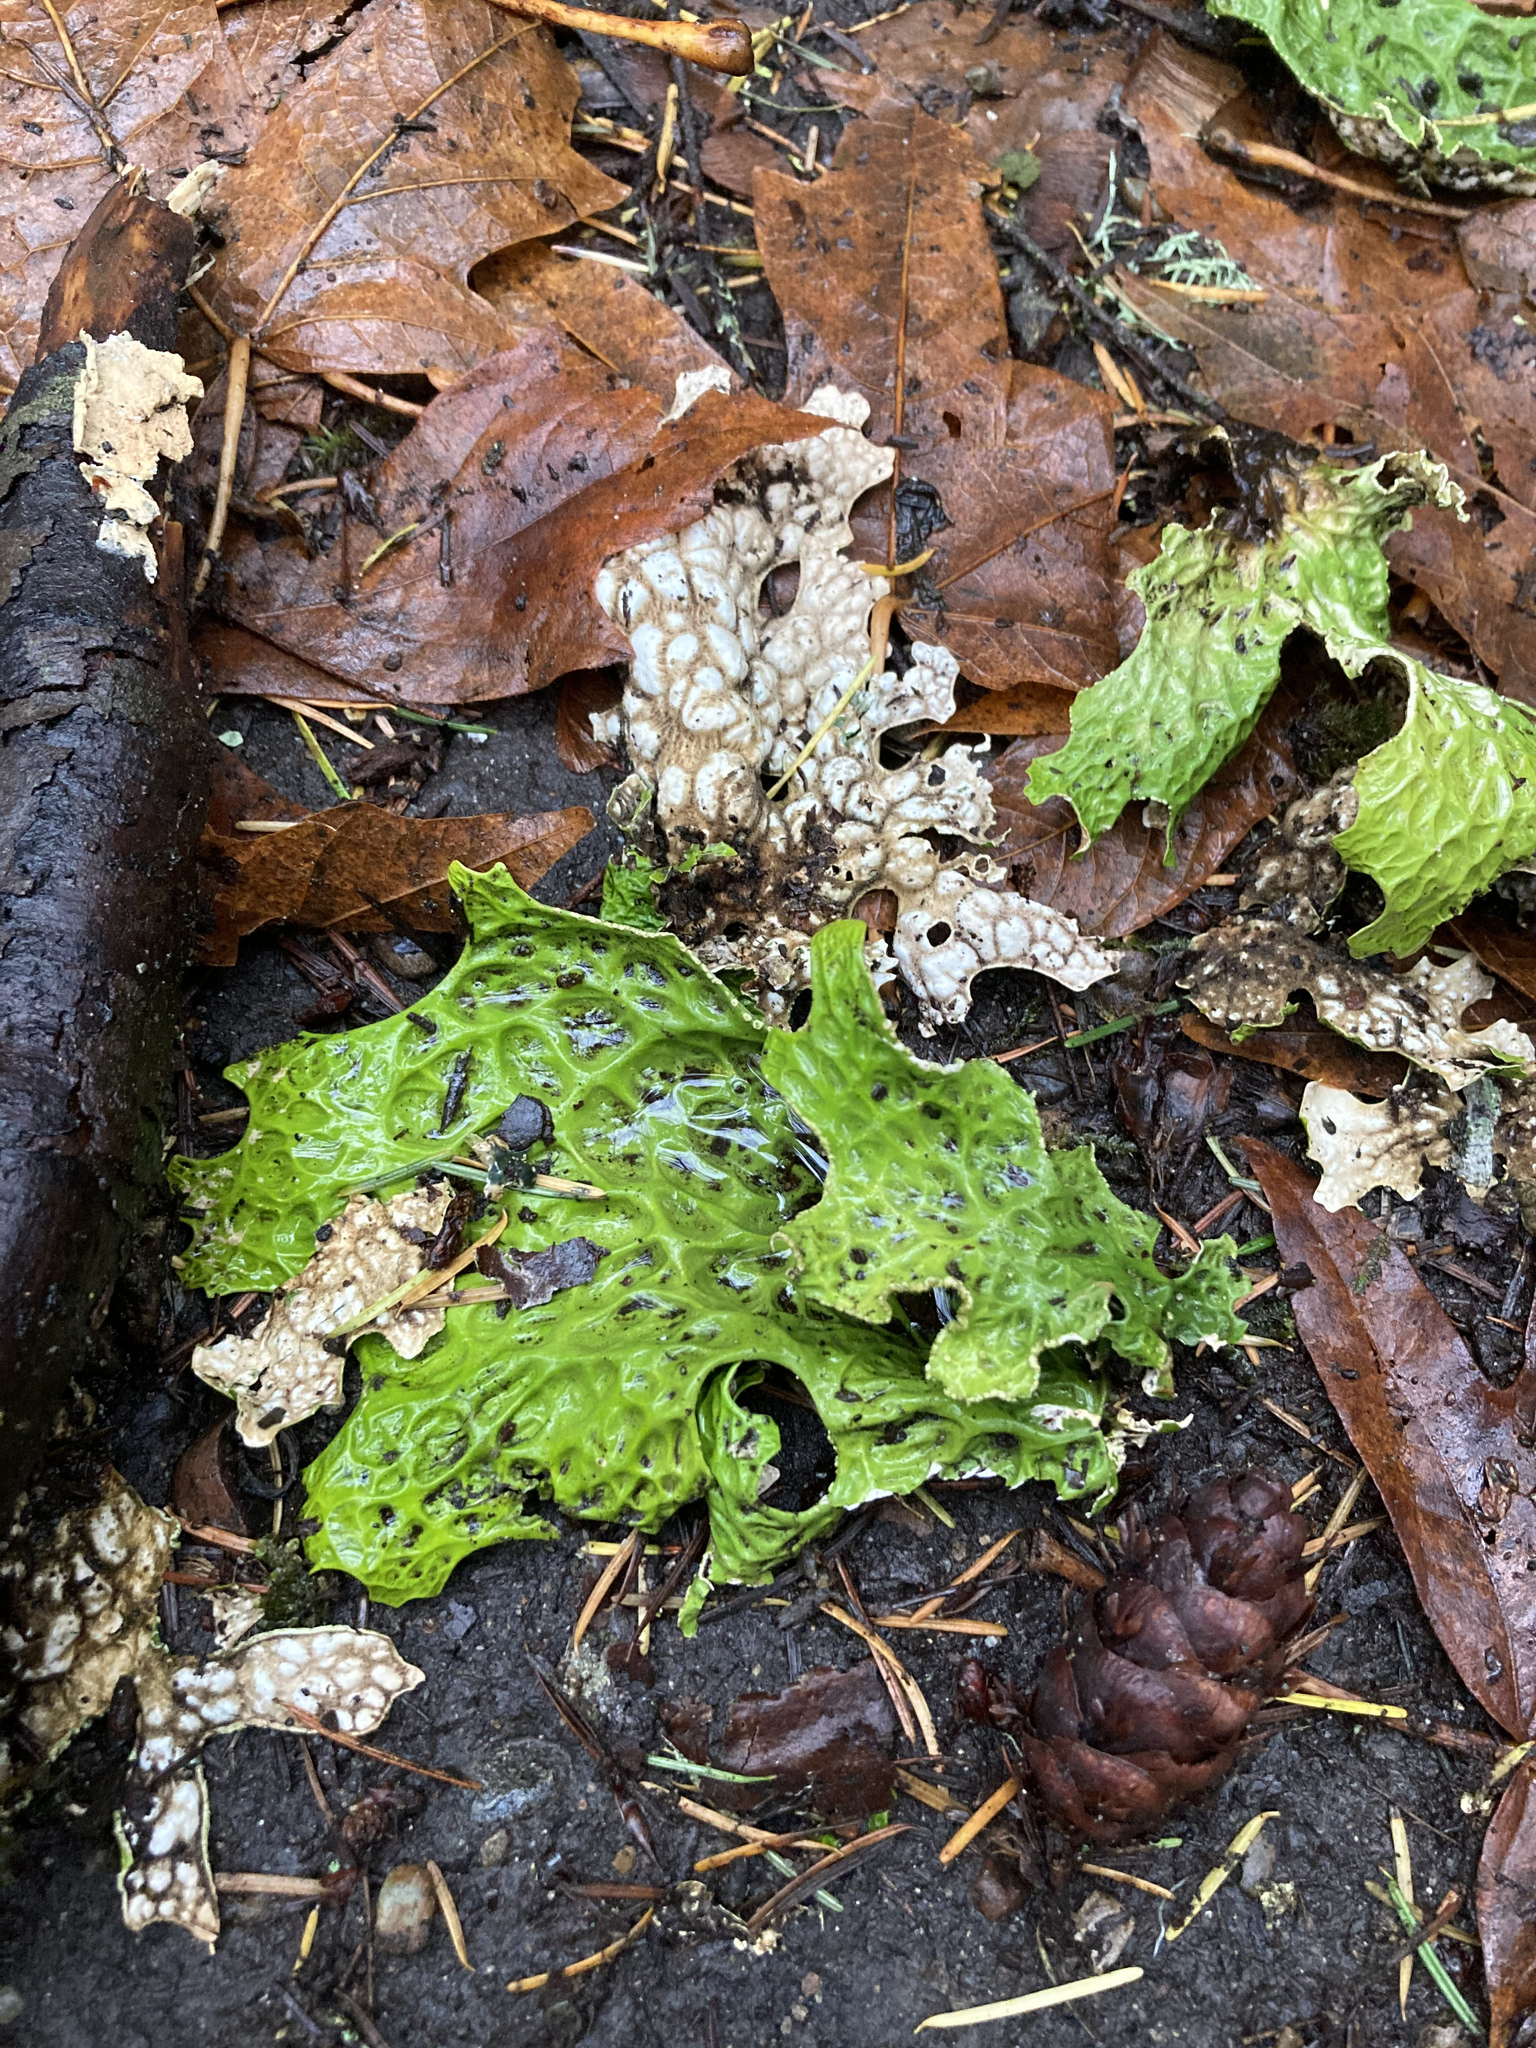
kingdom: Fungi
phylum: Ascomycota
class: Lecanoromycetes
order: Peltigerales
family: Lobariaceae
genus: Lobaria
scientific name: Lobaria pulmonaria
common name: Lungwort
